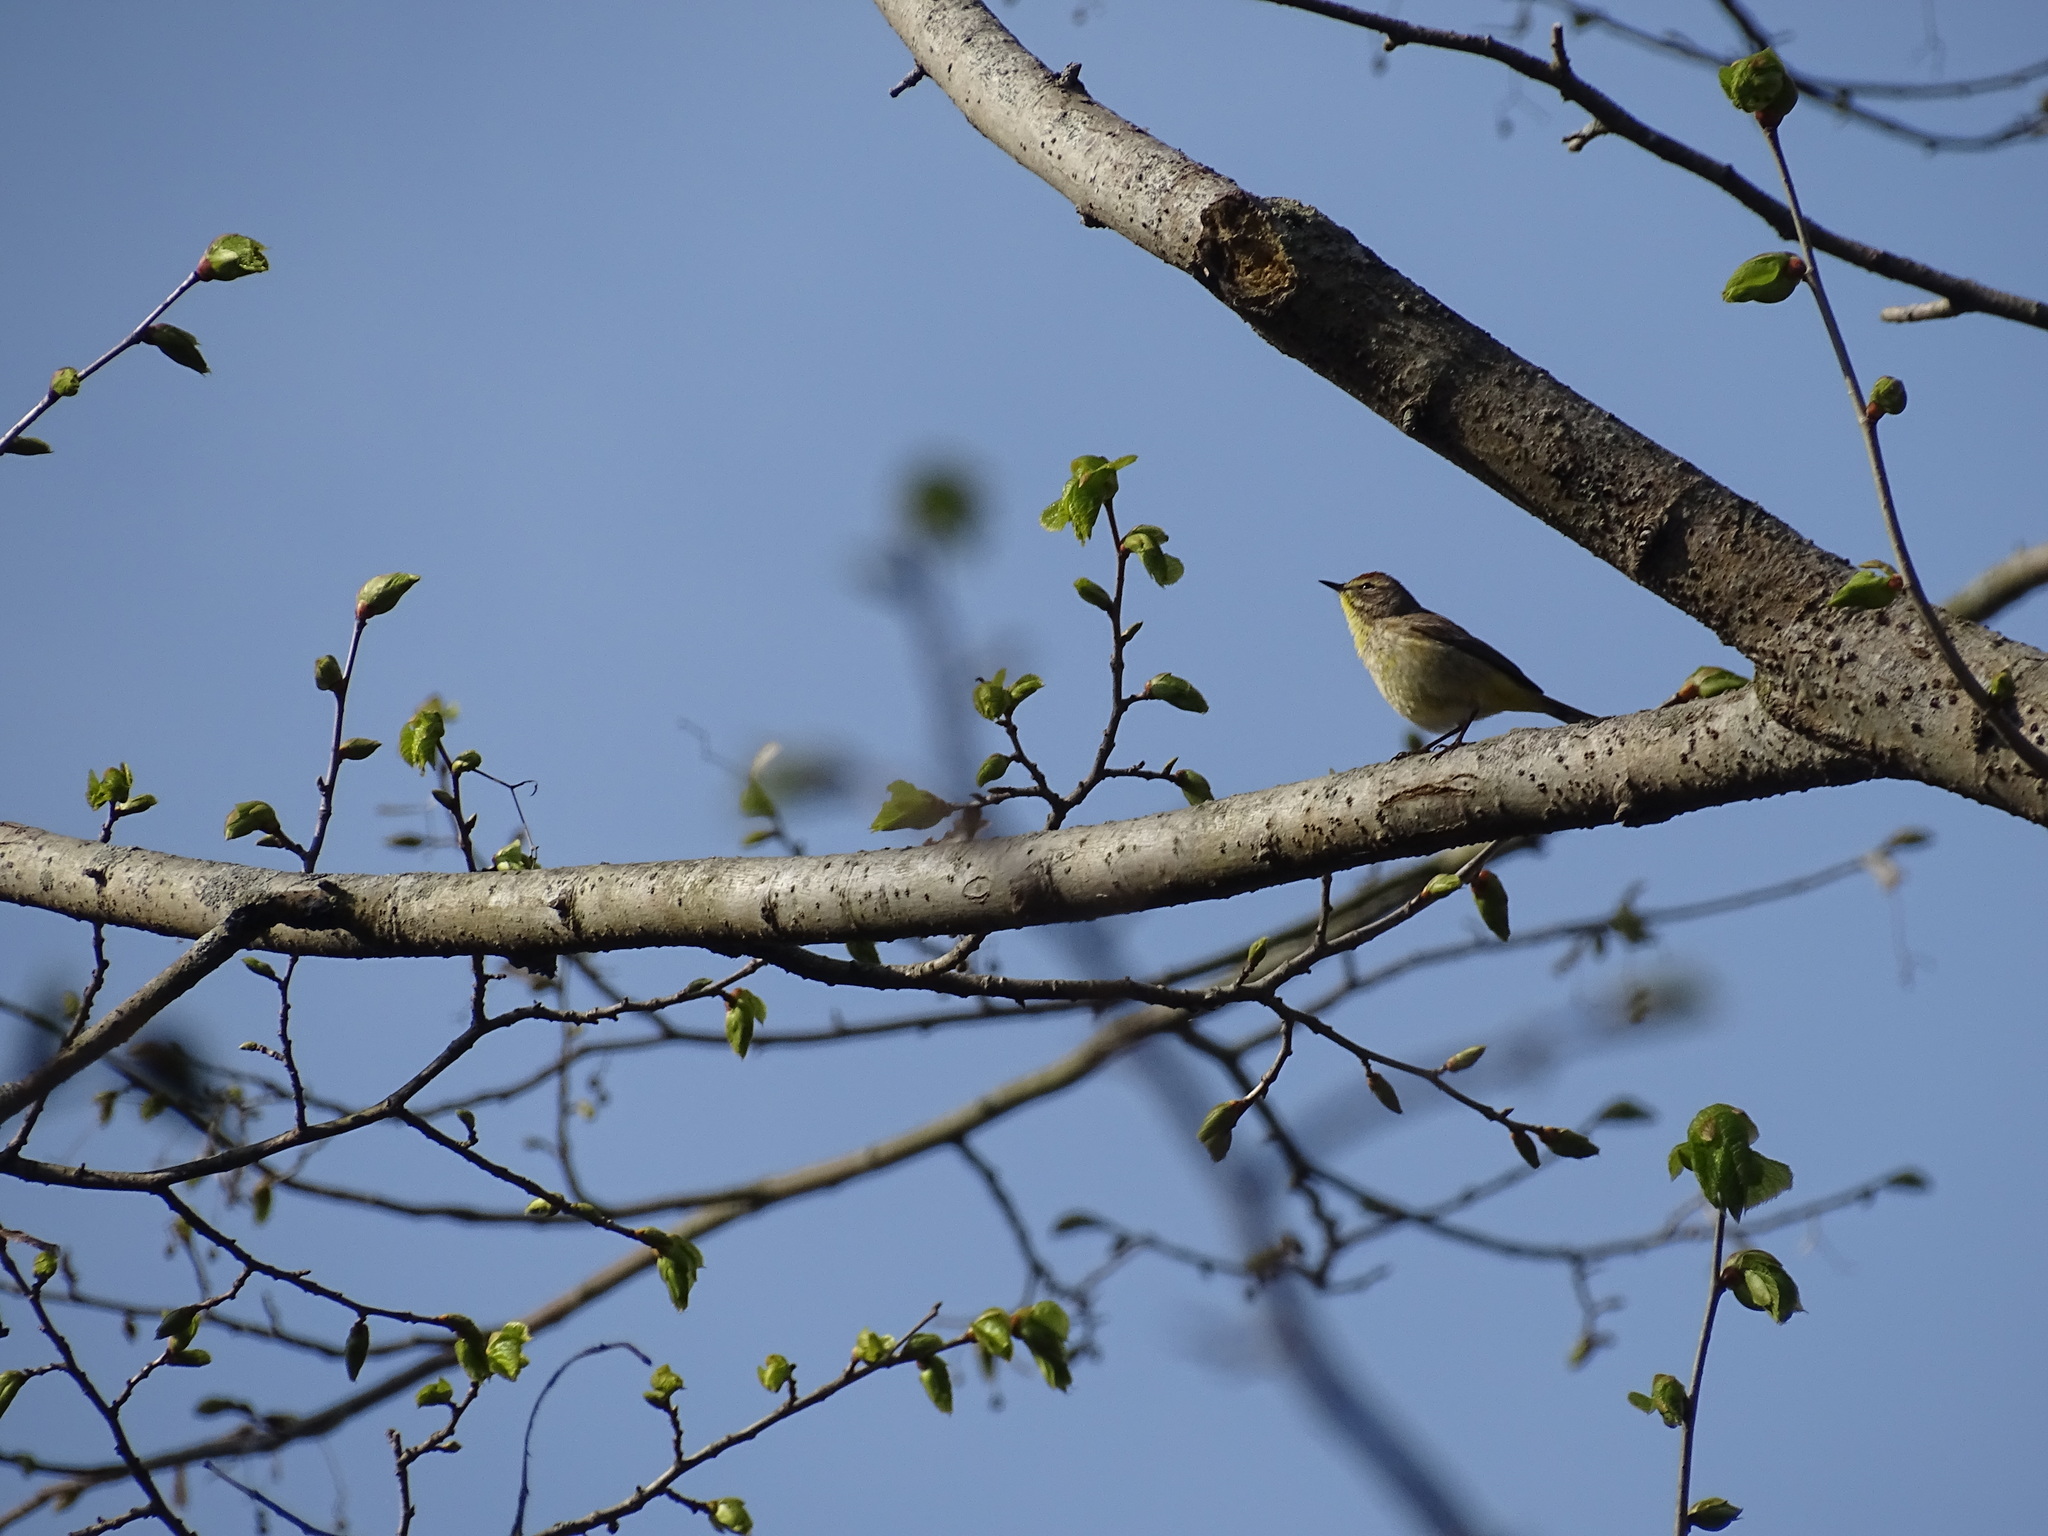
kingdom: Animalia
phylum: Chordata
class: Aves
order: Passeriformes
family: Parulidae
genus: Setophaga
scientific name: Setophaga palmarum
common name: Palm warbler
